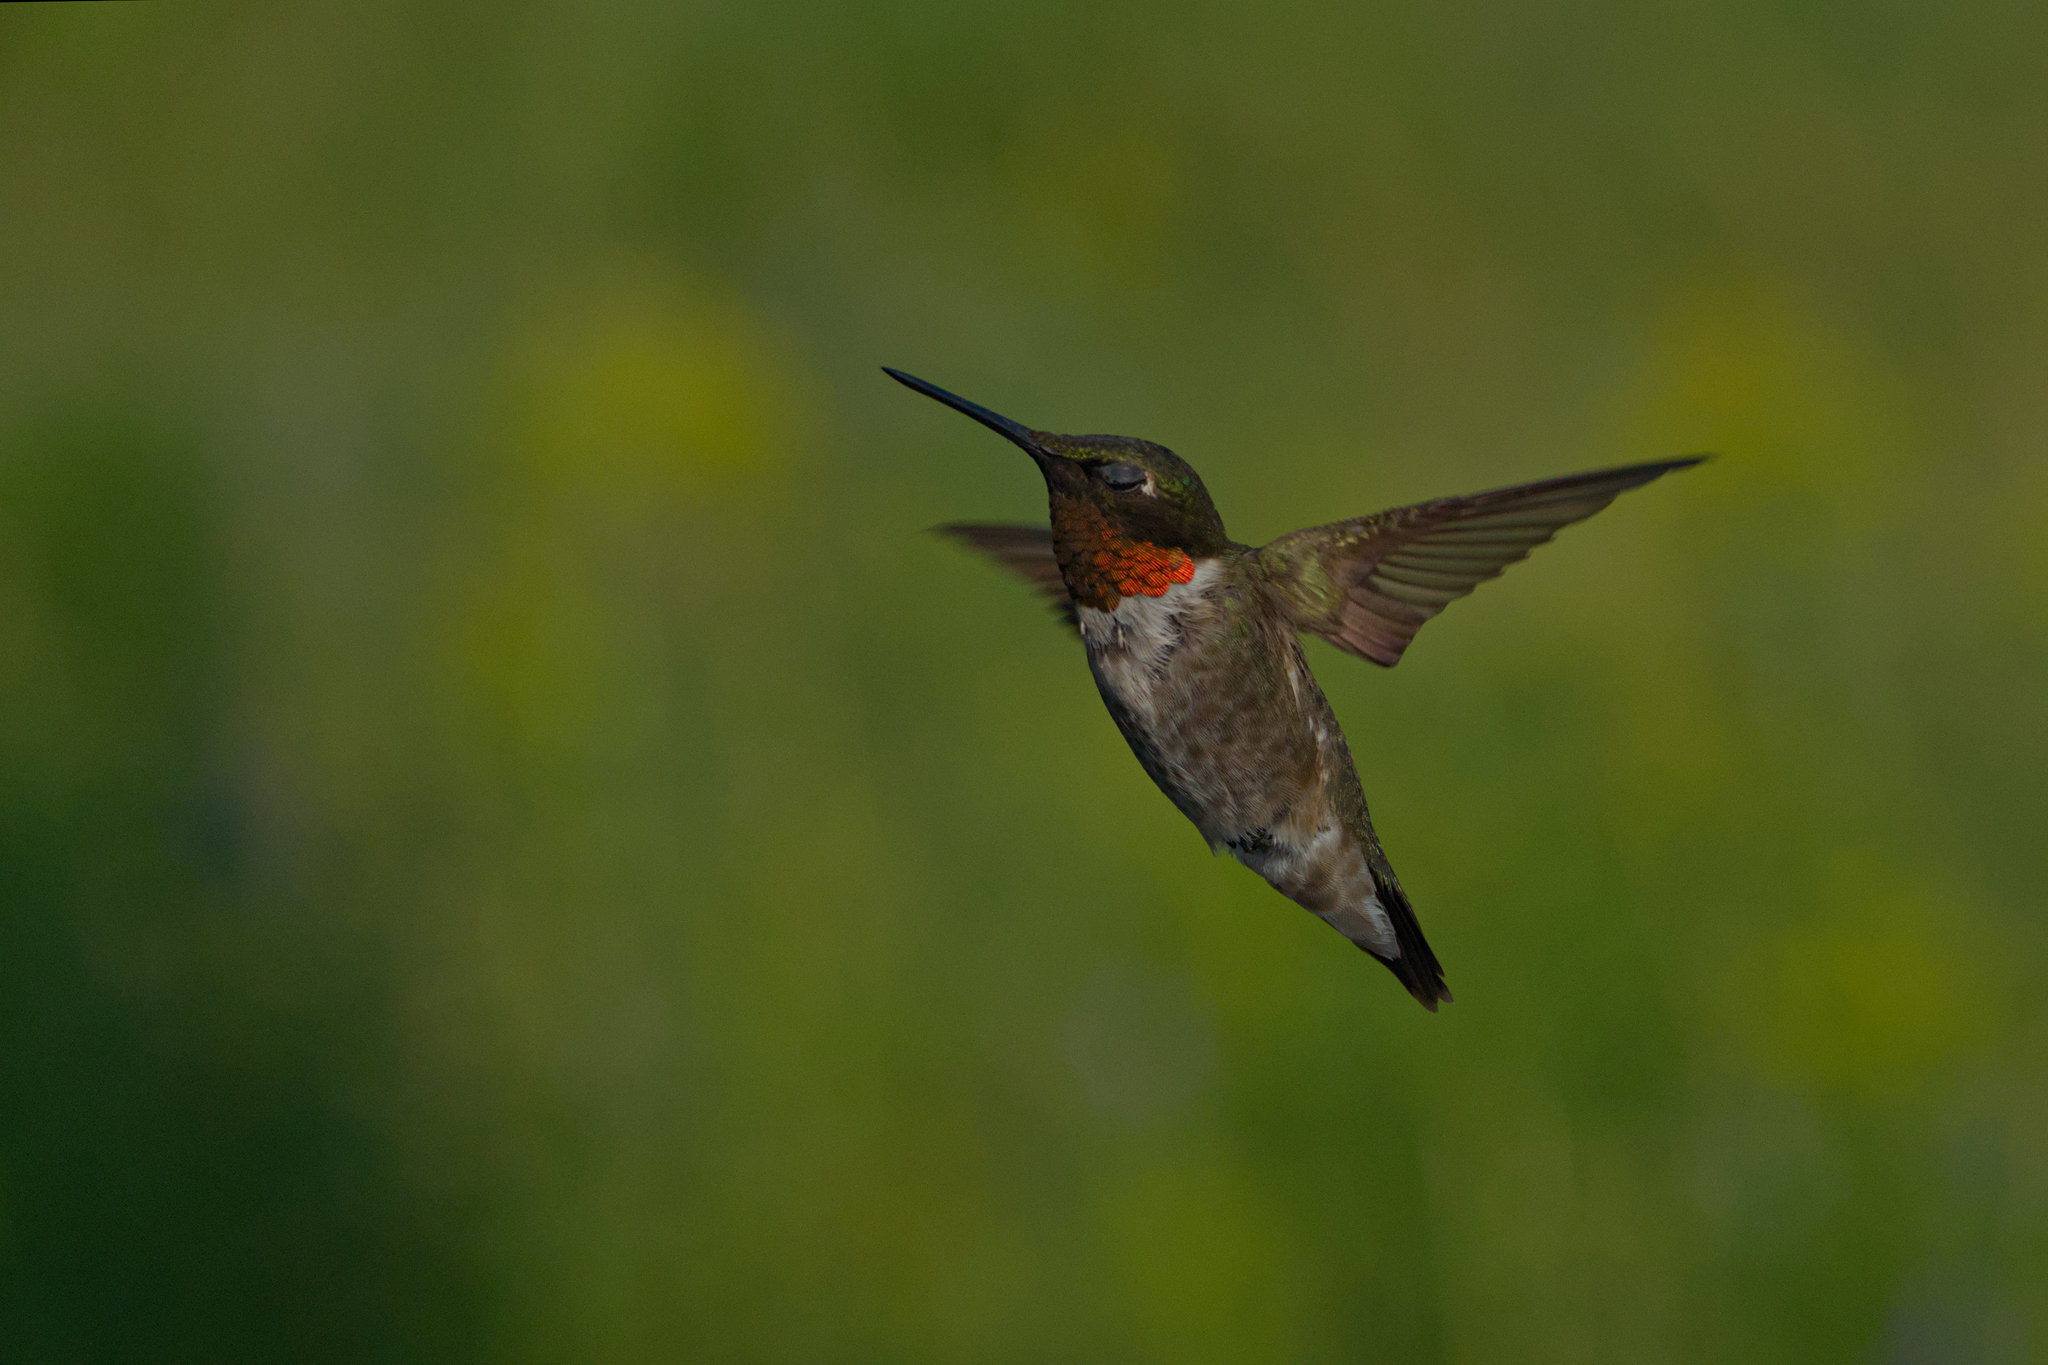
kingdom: Animalia
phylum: Chordata
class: Aves
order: Apodiformes
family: Trochilidae
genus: Archilochus
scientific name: Archilochus colubris
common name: Ruby-throated hummingbird
